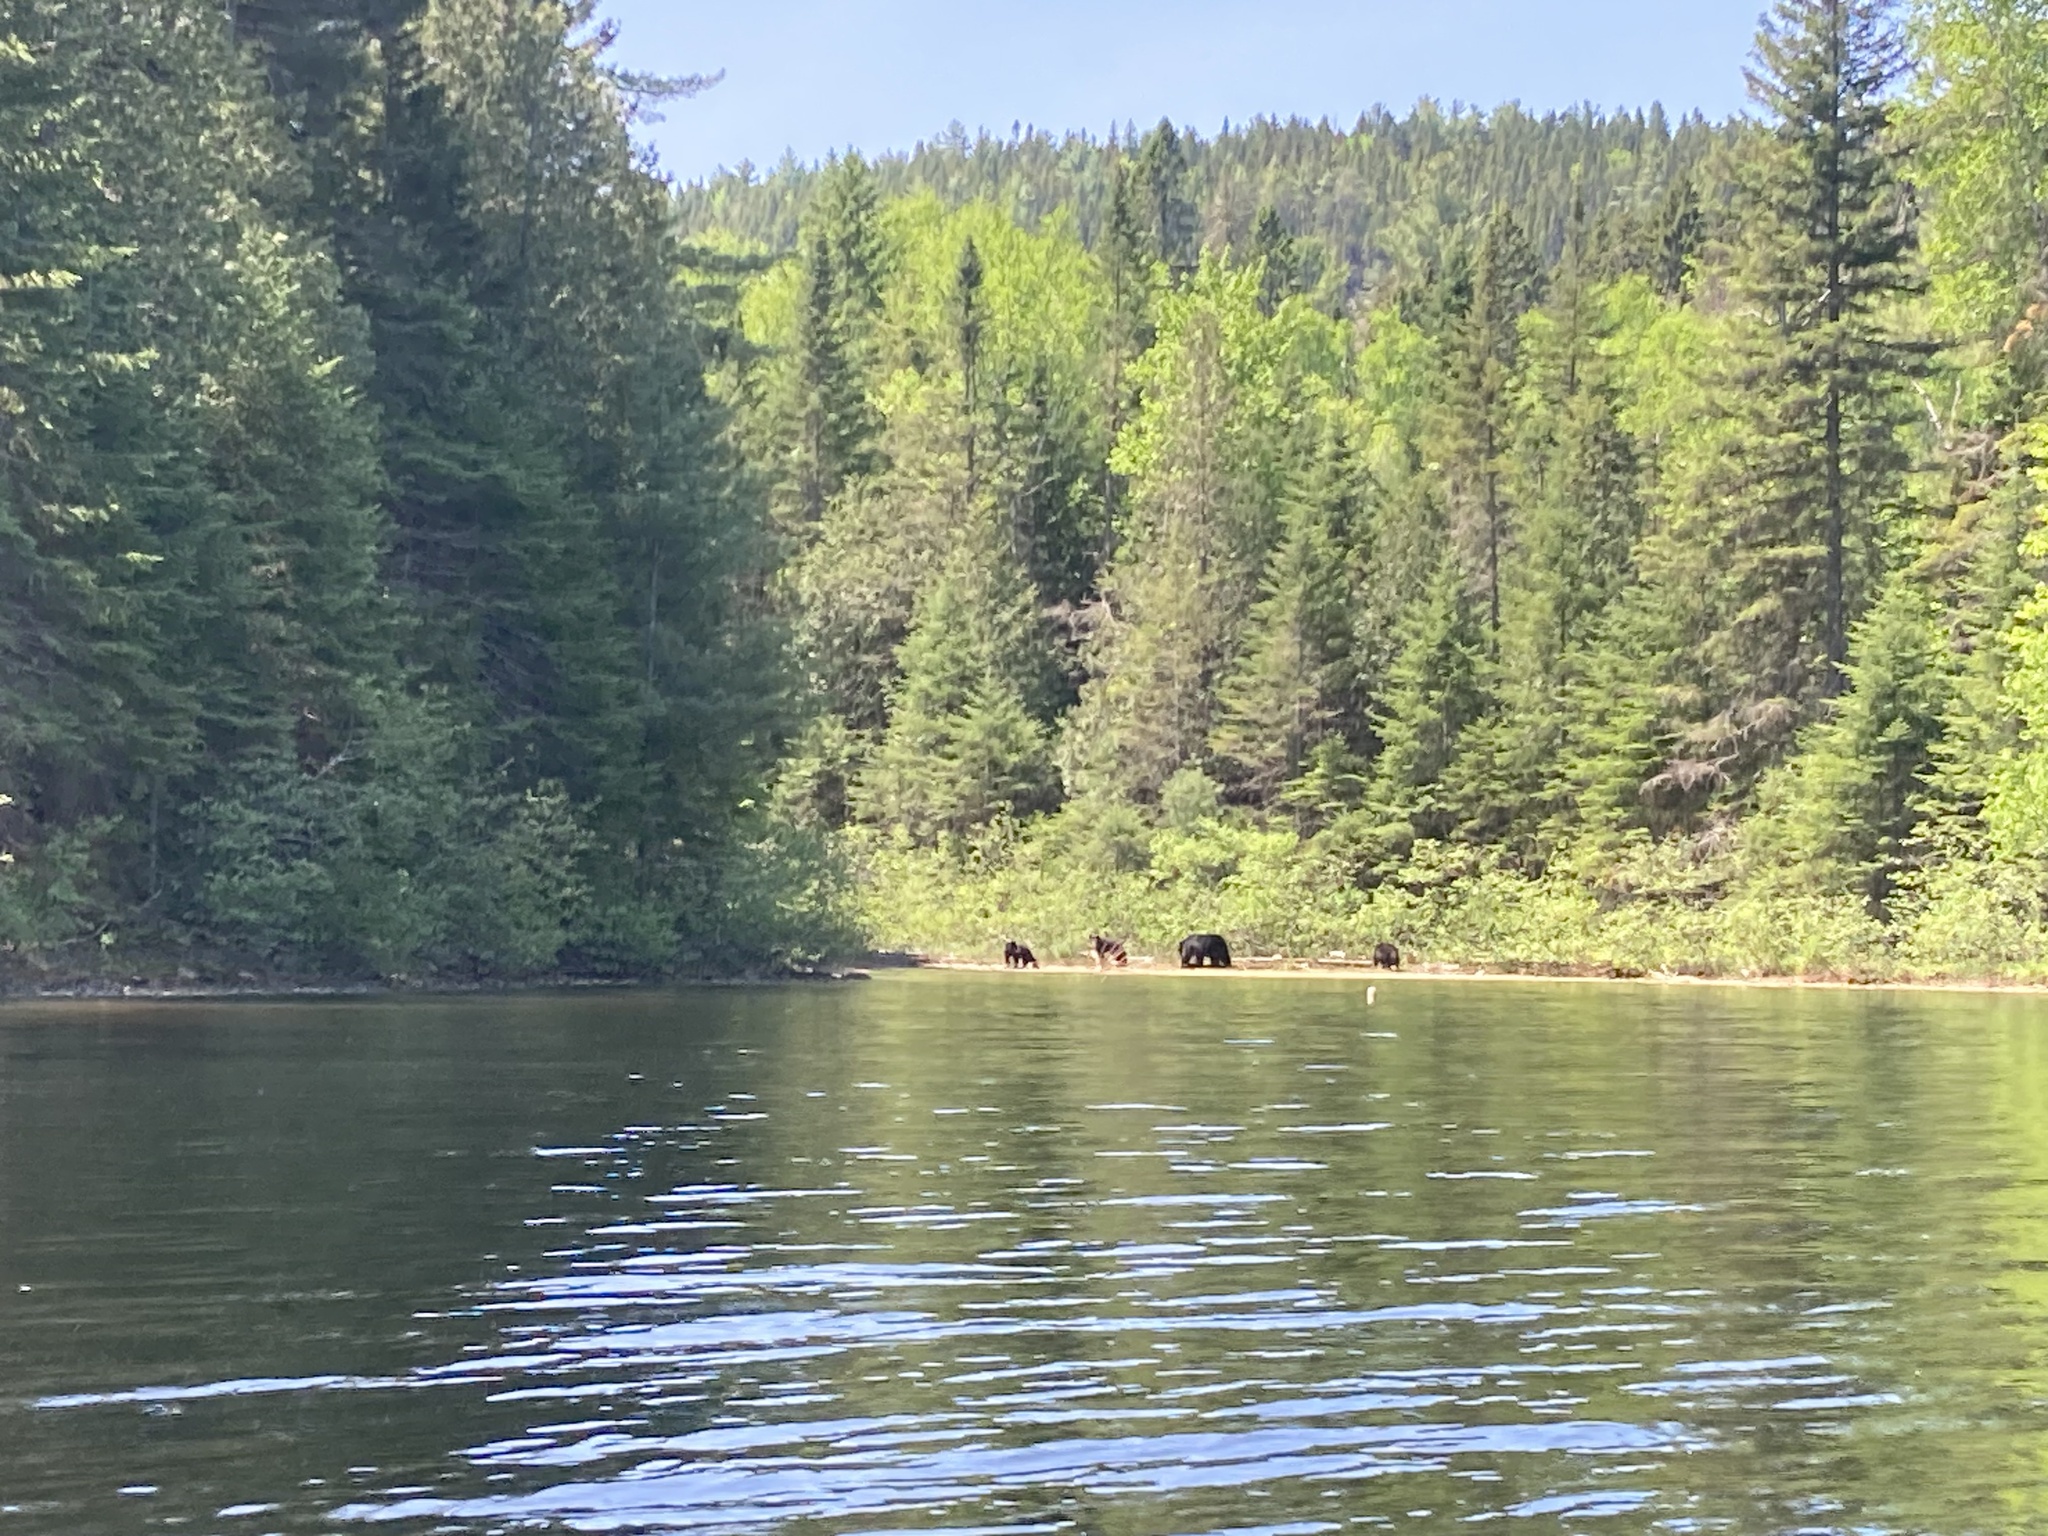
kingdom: Animalia
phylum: Chordata
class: Mammalia
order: Carnivora
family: Ursidae
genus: Ursus
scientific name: Ursus americanus
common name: American black bear
